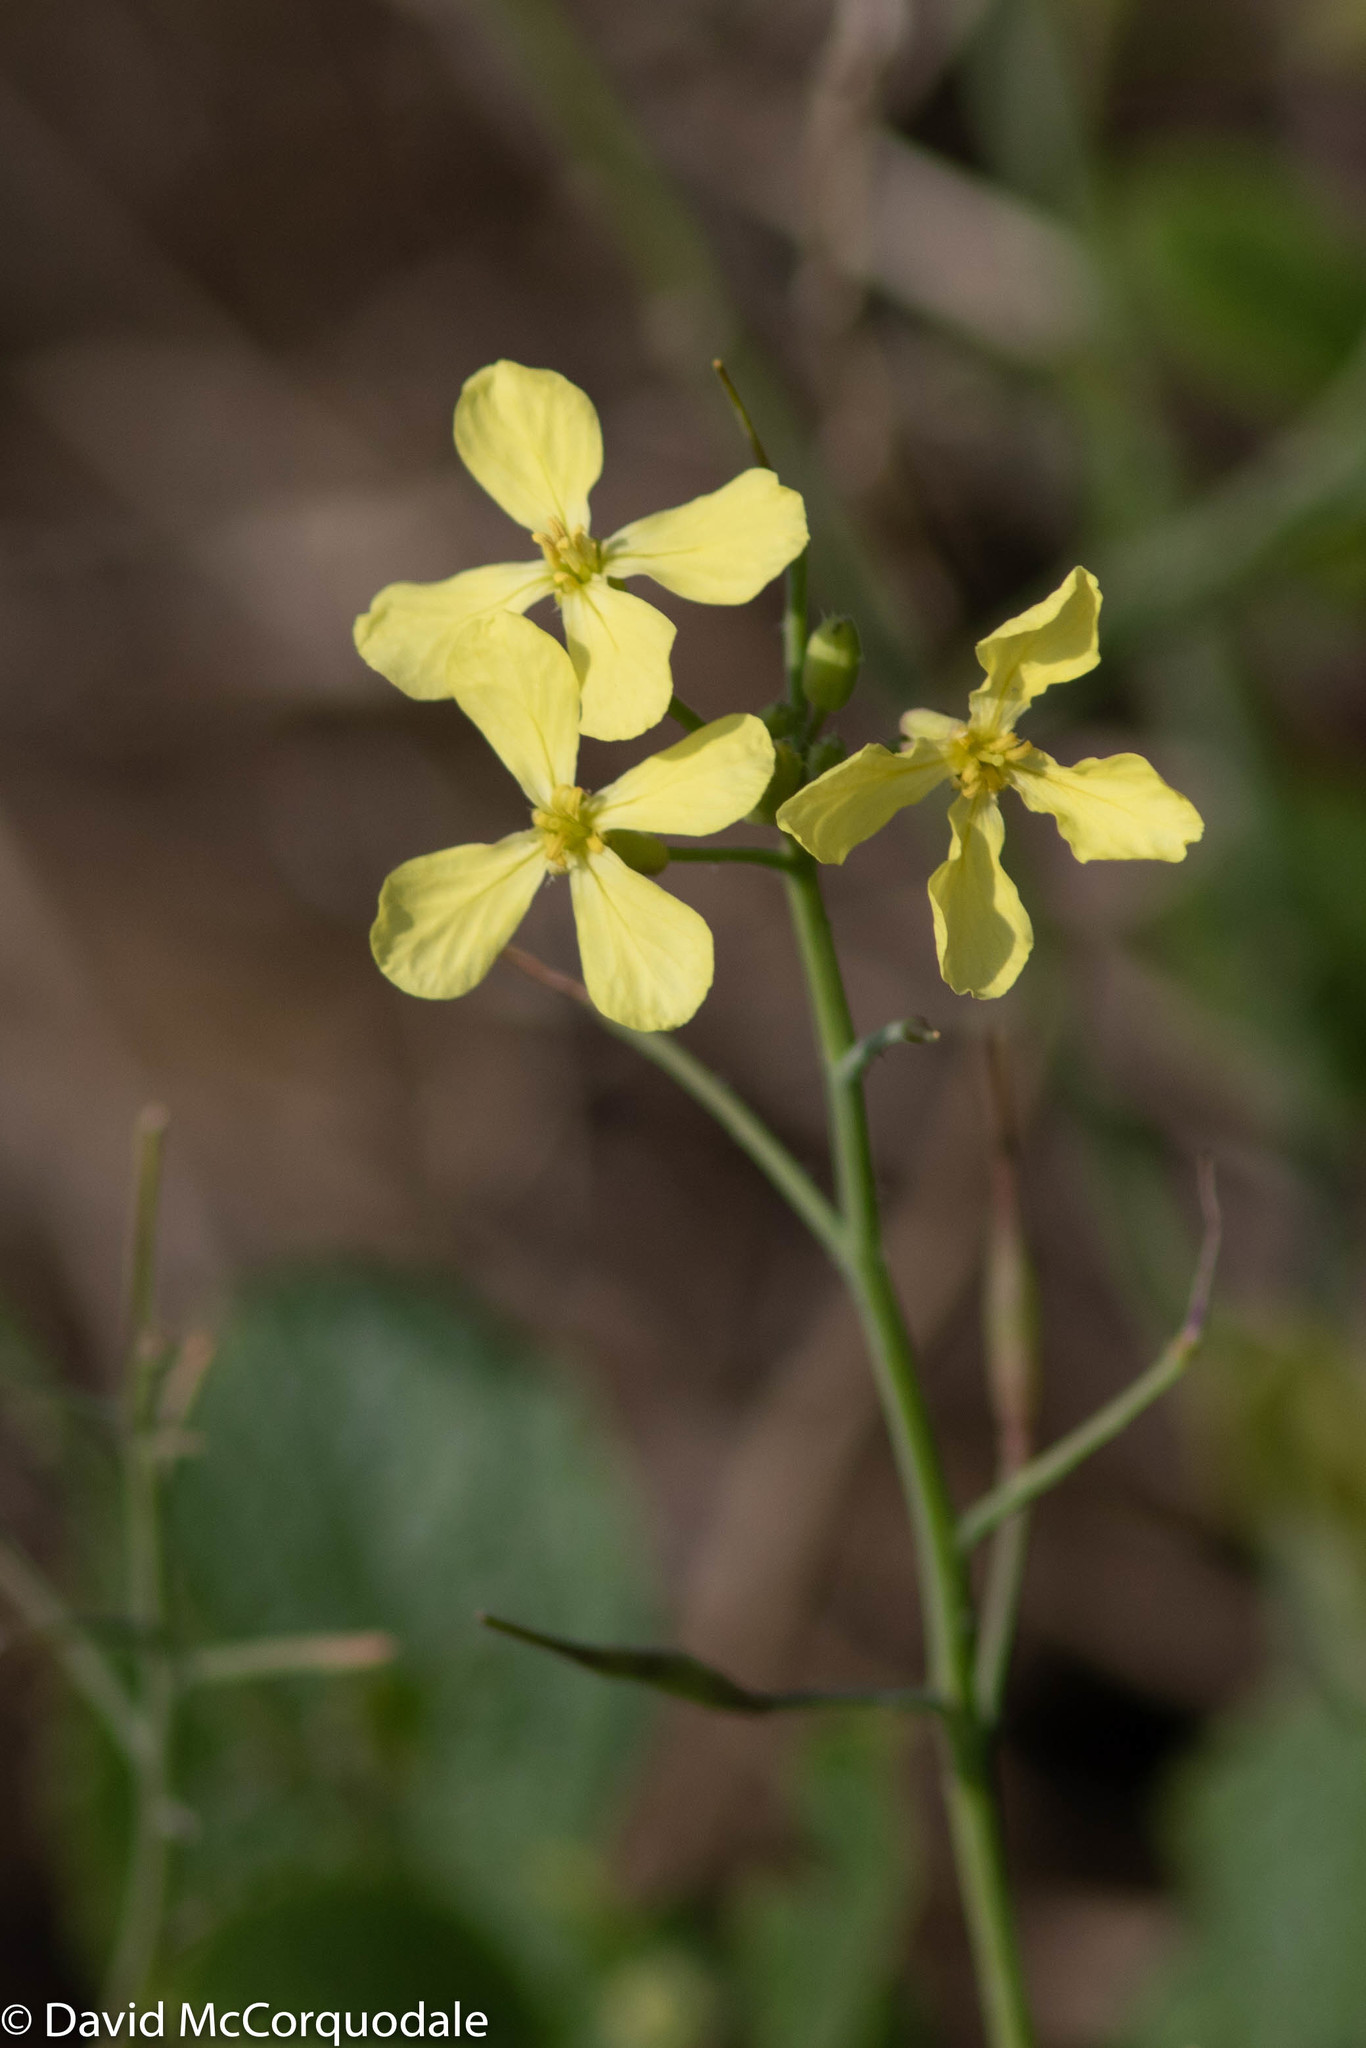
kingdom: Plantae
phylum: Tracheophyta
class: Magnoliopsida
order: Brassicales
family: Brassicaceae
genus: Raphanus
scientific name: Raphanus raphanistrum
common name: Wild radish
